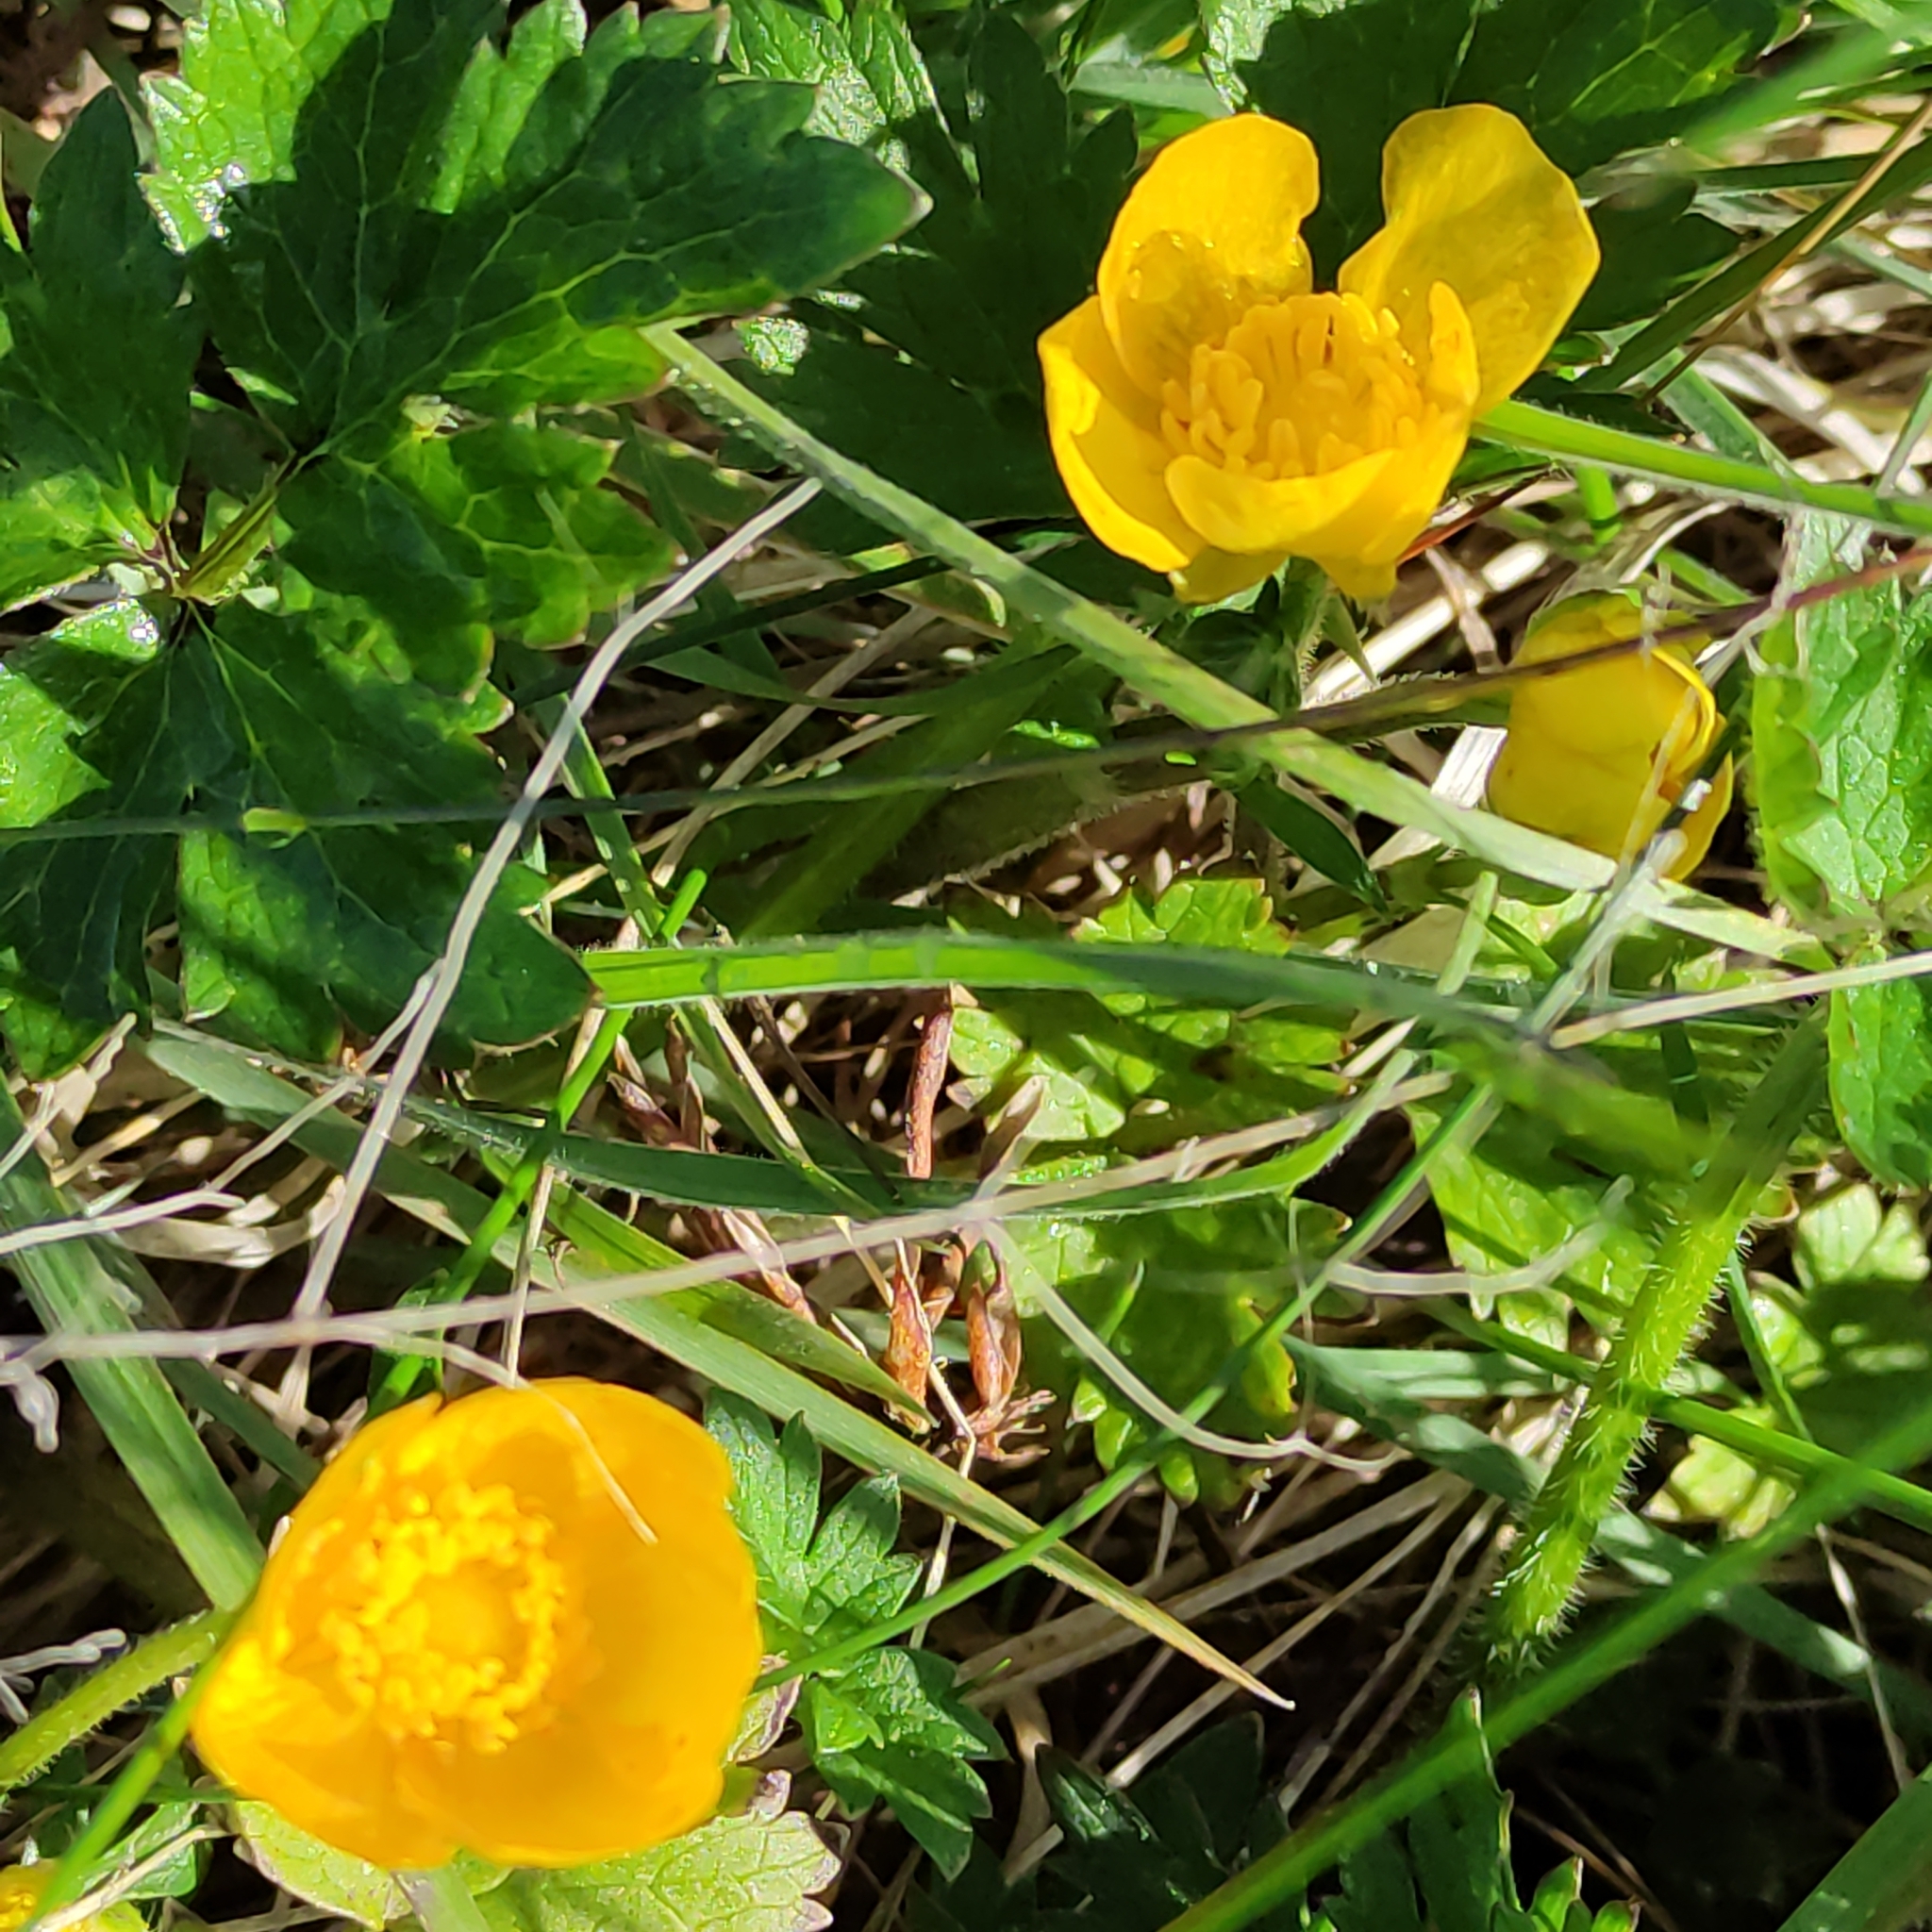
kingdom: Plantae
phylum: Tracheophyta
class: Magnoliopsida
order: Ranunculales
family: Ranunculaceae
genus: Ranunculus
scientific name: Ranunculus repens
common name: Creeping buttercup
